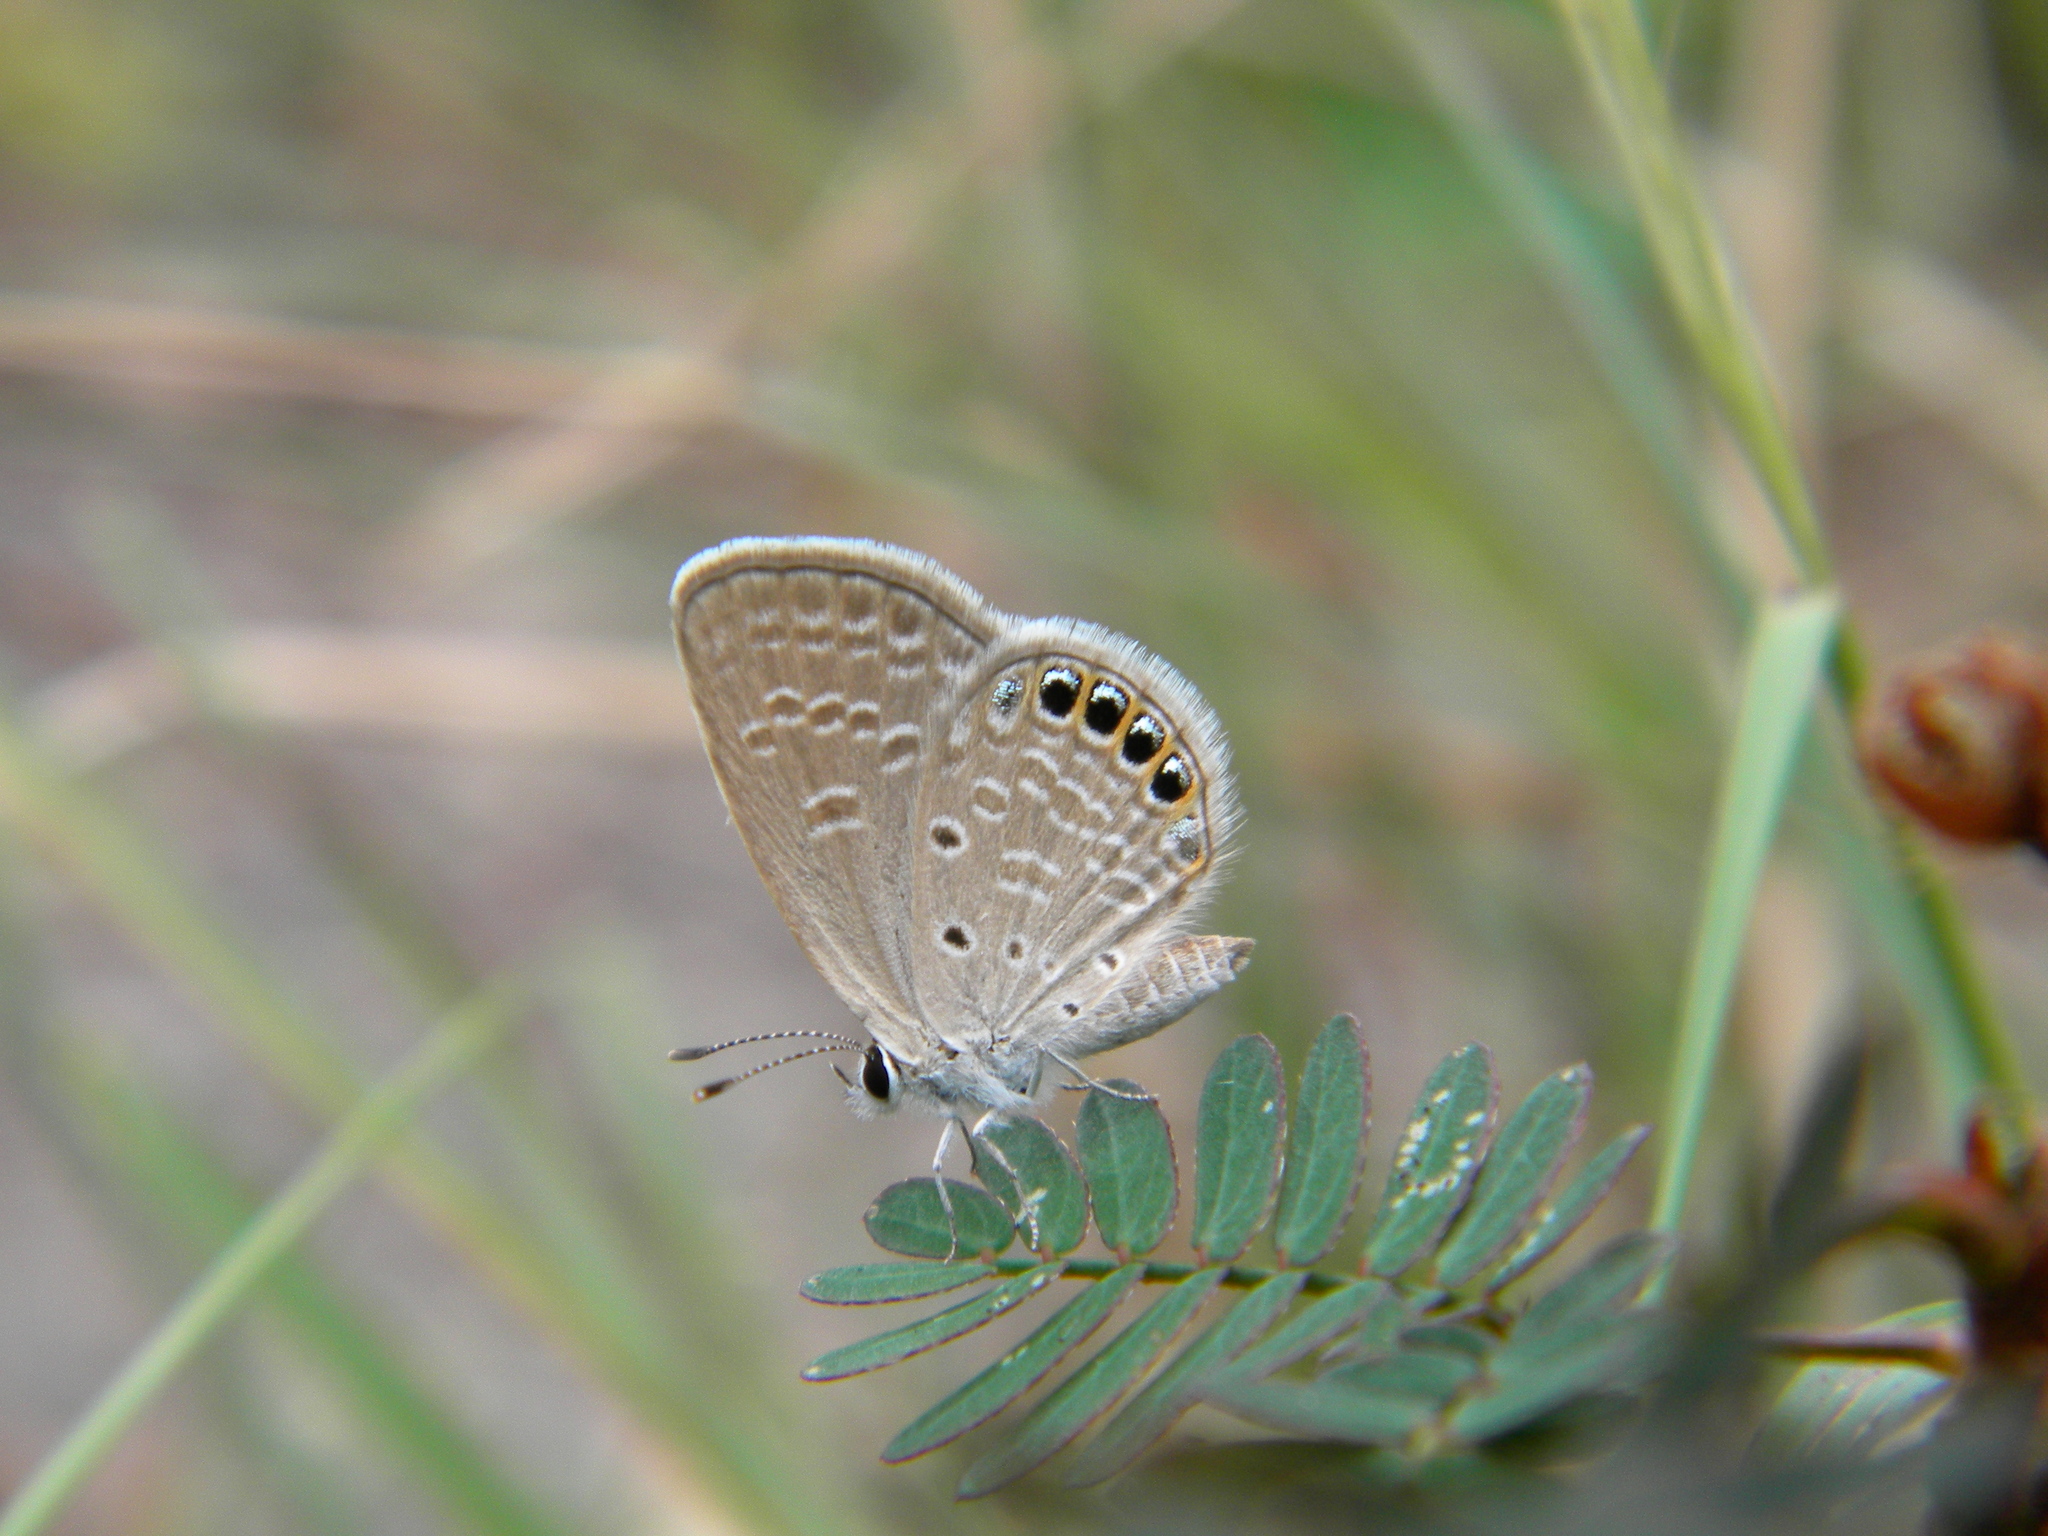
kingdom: Animalia
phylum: Arthropoda
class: Insecta
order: Lepidoptera
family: Lycaenidae
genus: Freyeria
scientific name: Freyeria putli
